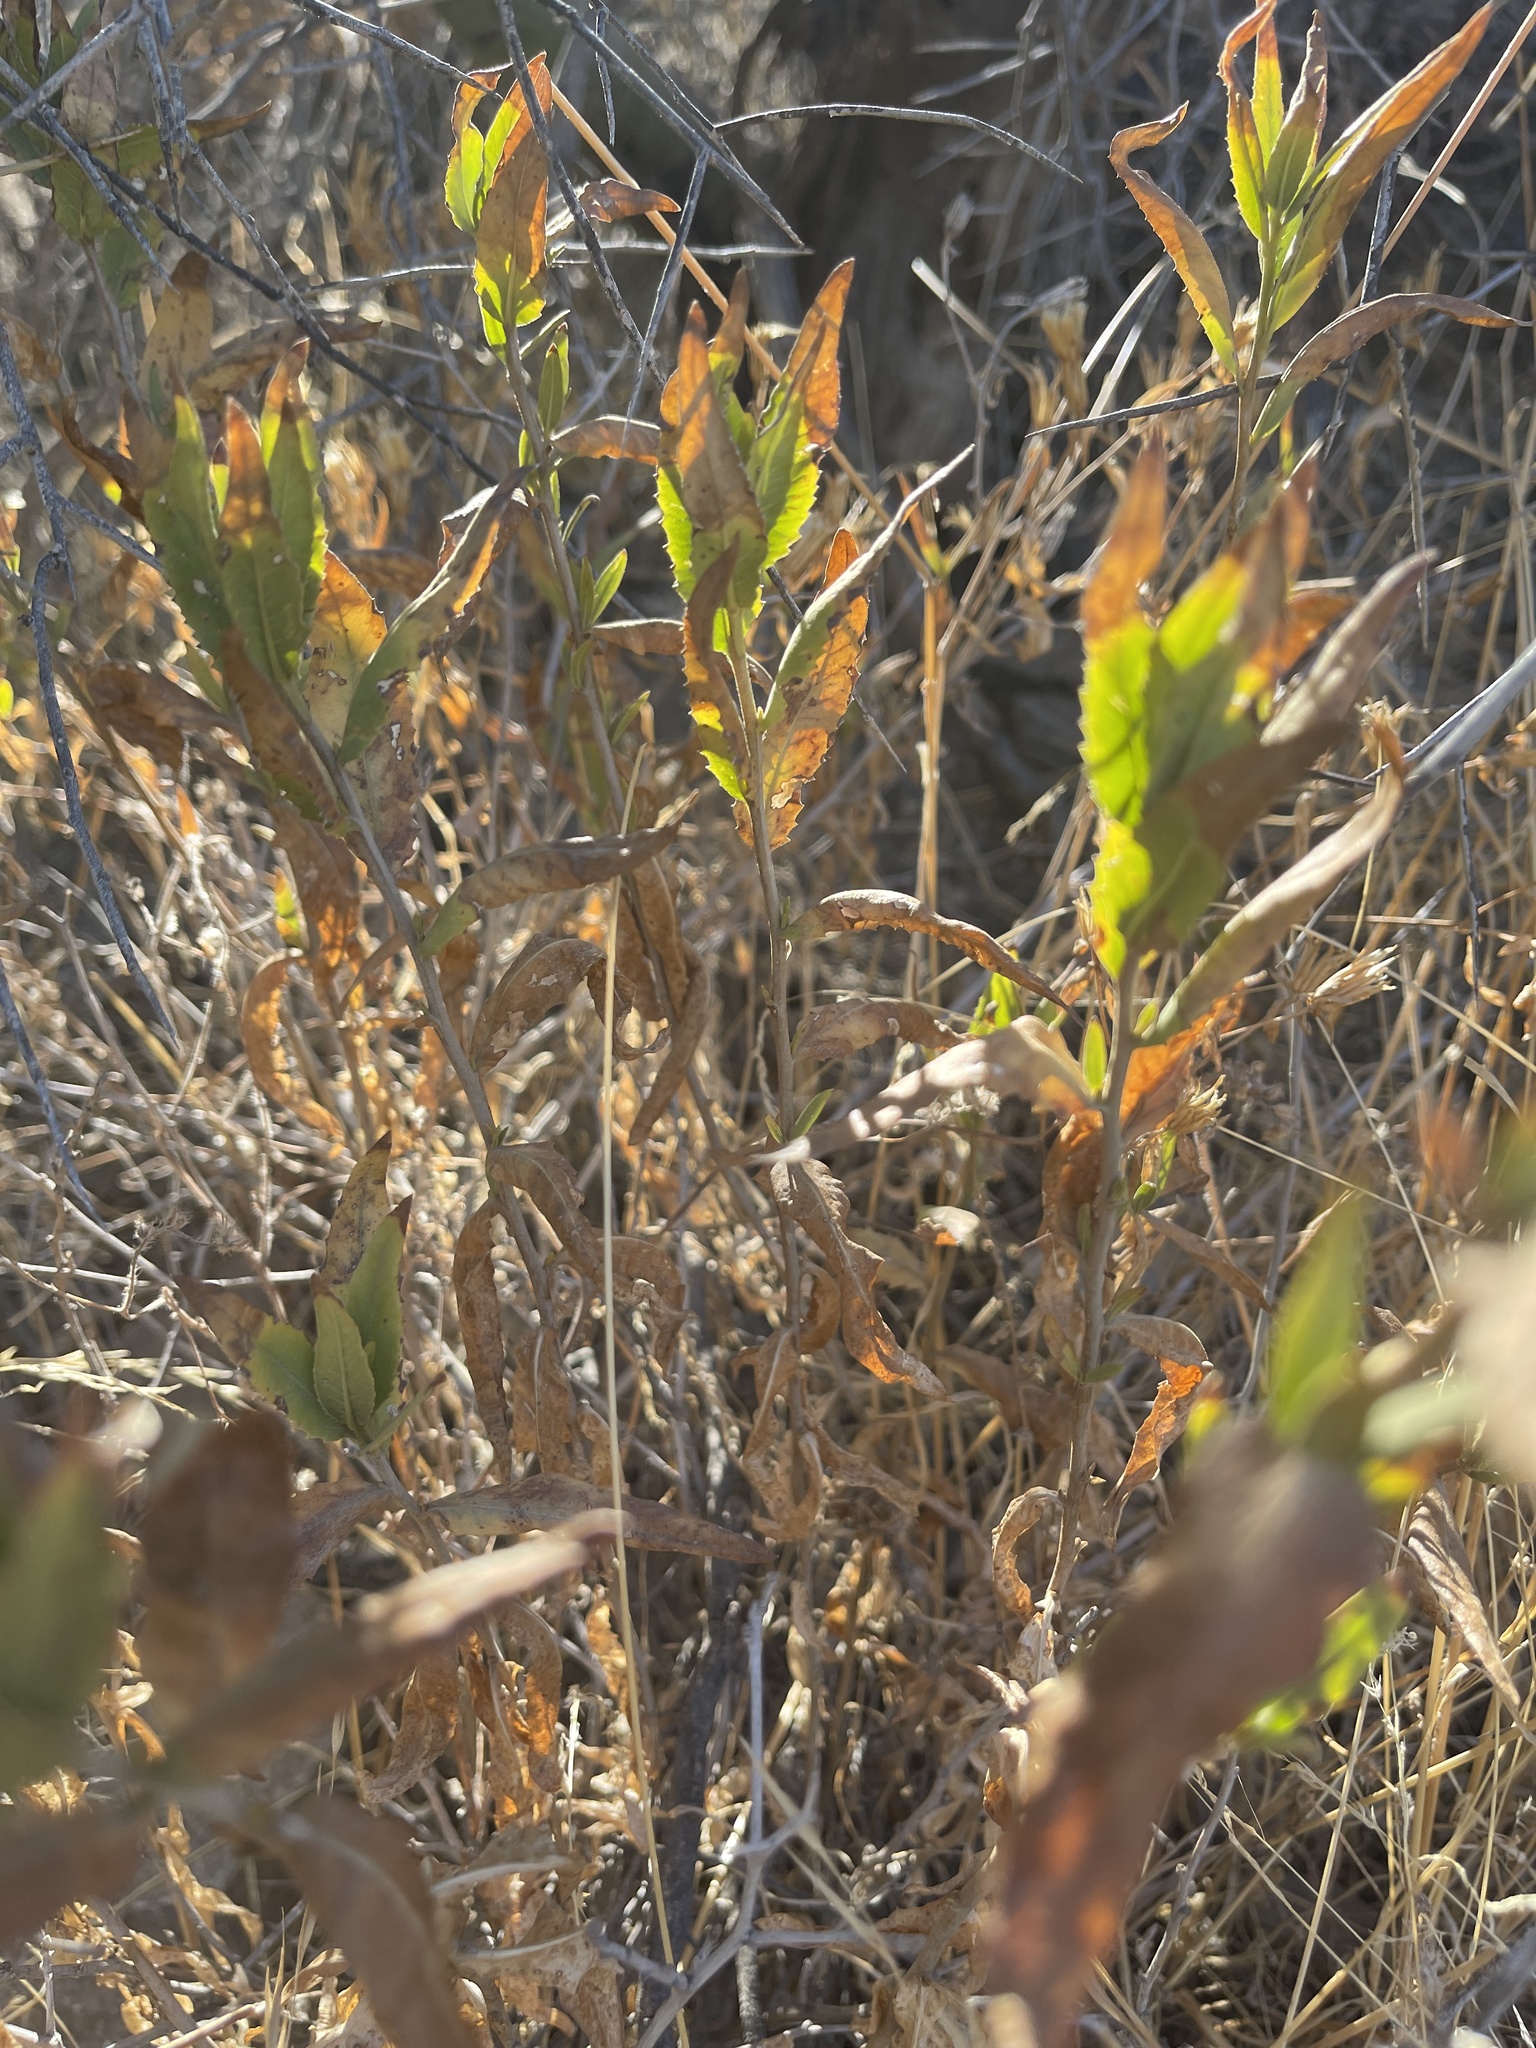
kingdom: Plantae
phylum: Tracheophyta
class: Magnoliopsida
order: Asterales
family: Asteraceae
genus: Trixis
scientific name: Trixis californica
